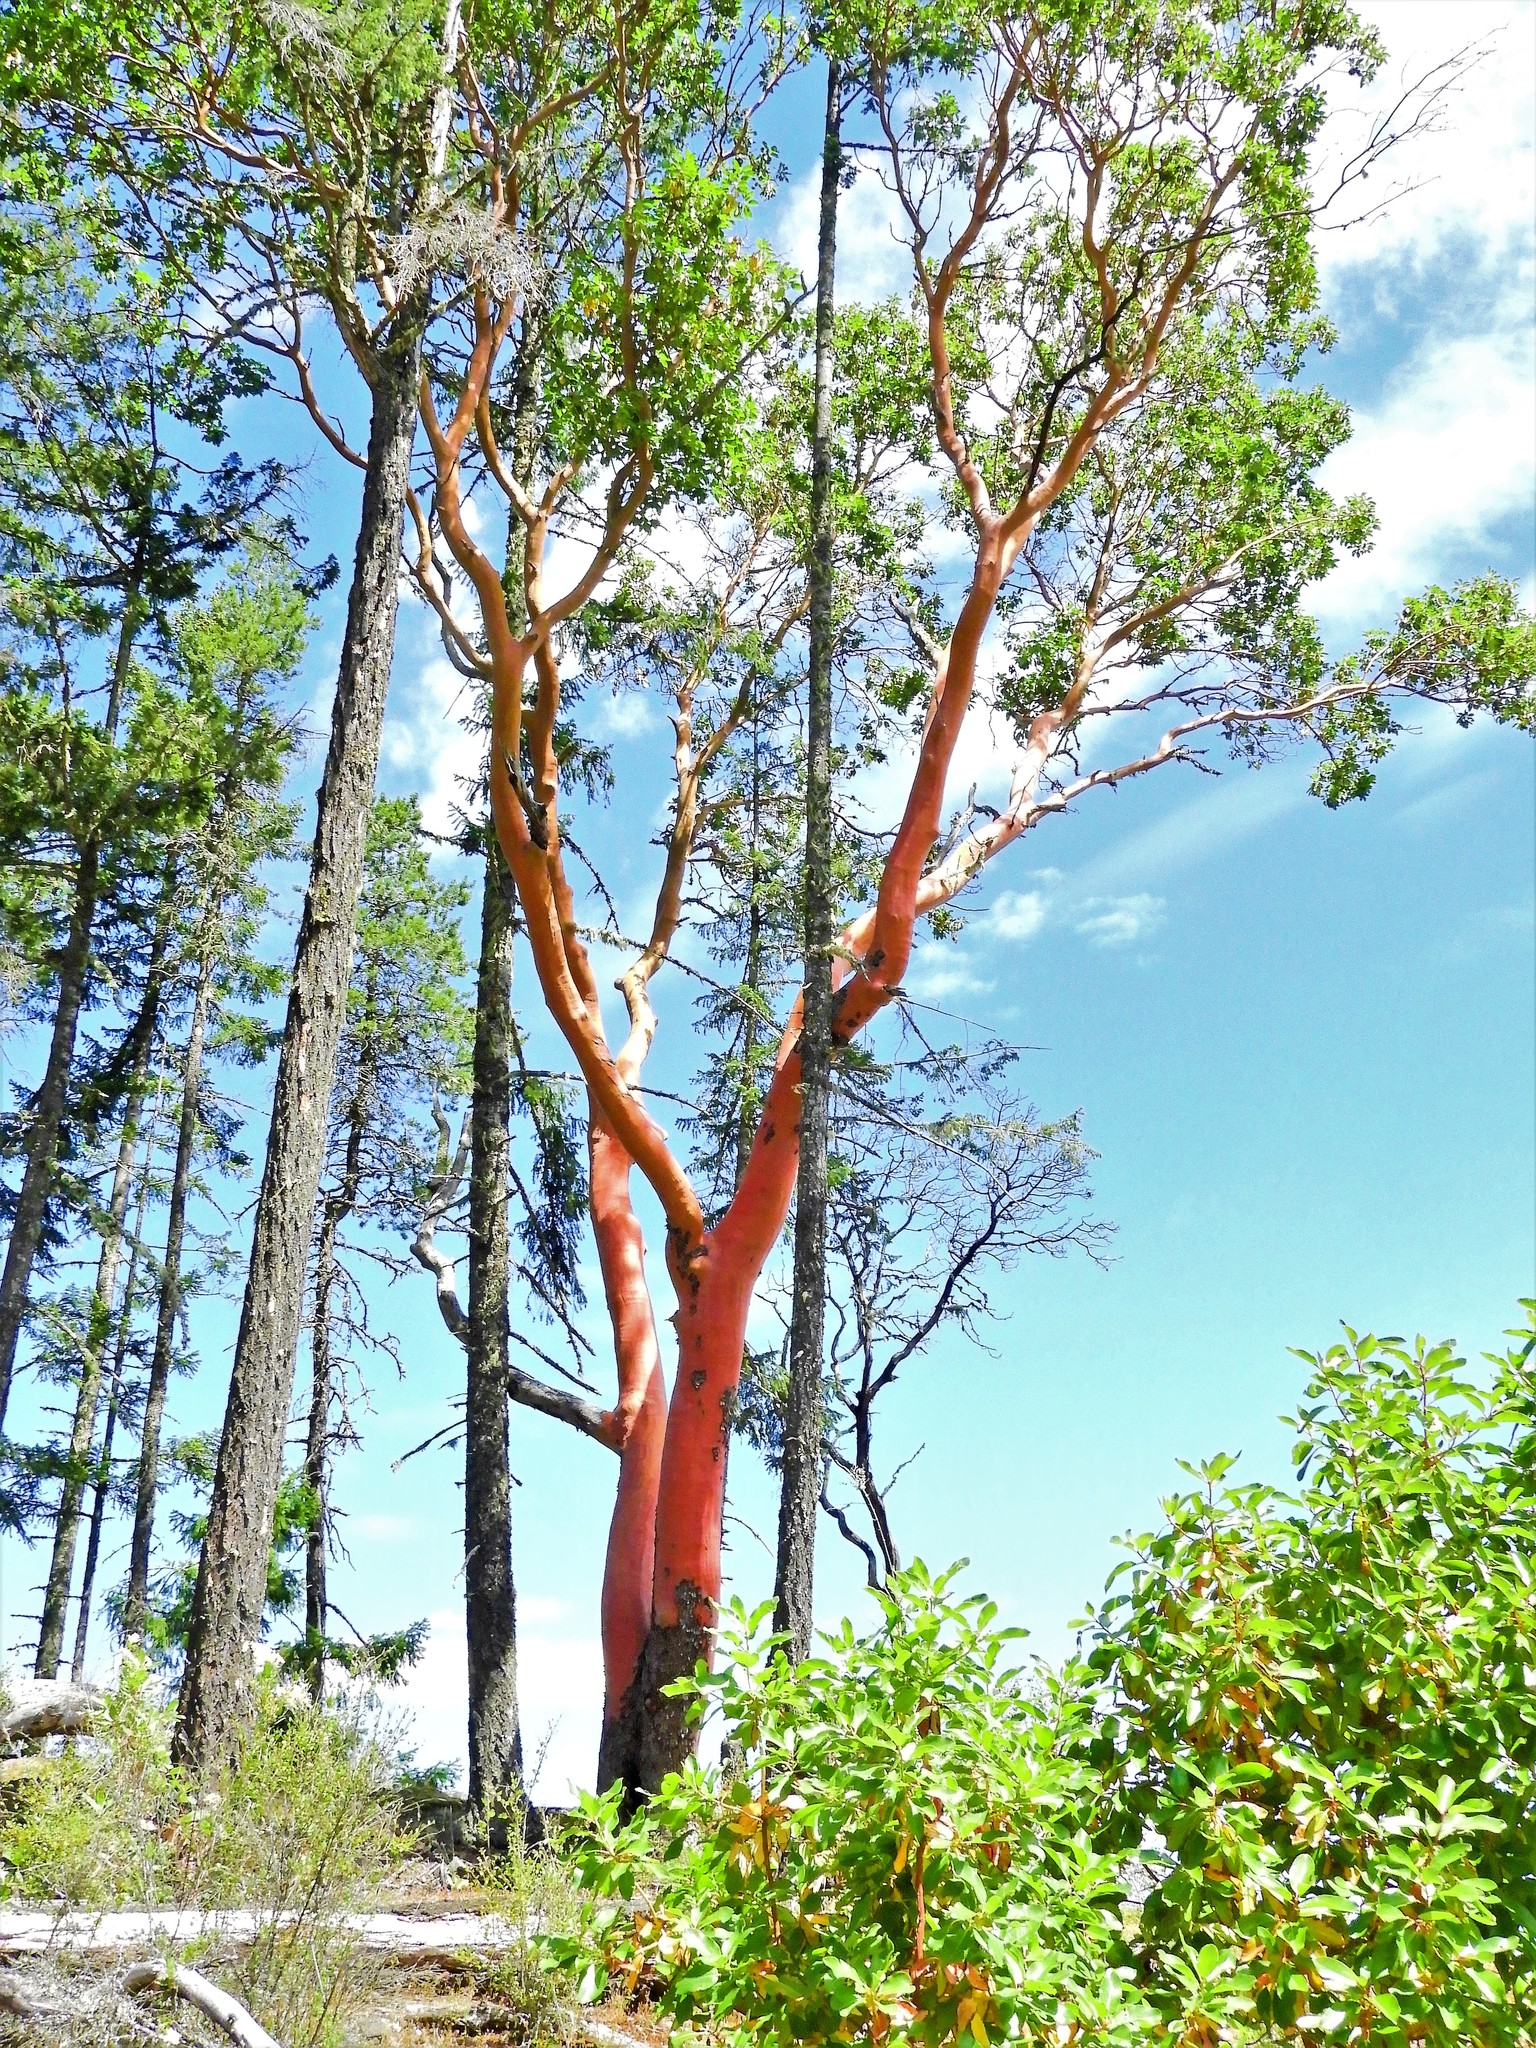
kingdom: Plantae
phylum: Tracheophyta
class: Magnoliopsida
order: Ericales
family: Ericaceae
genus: Arbutus
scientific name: Arbutus menziesii
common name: Pacific madrone
